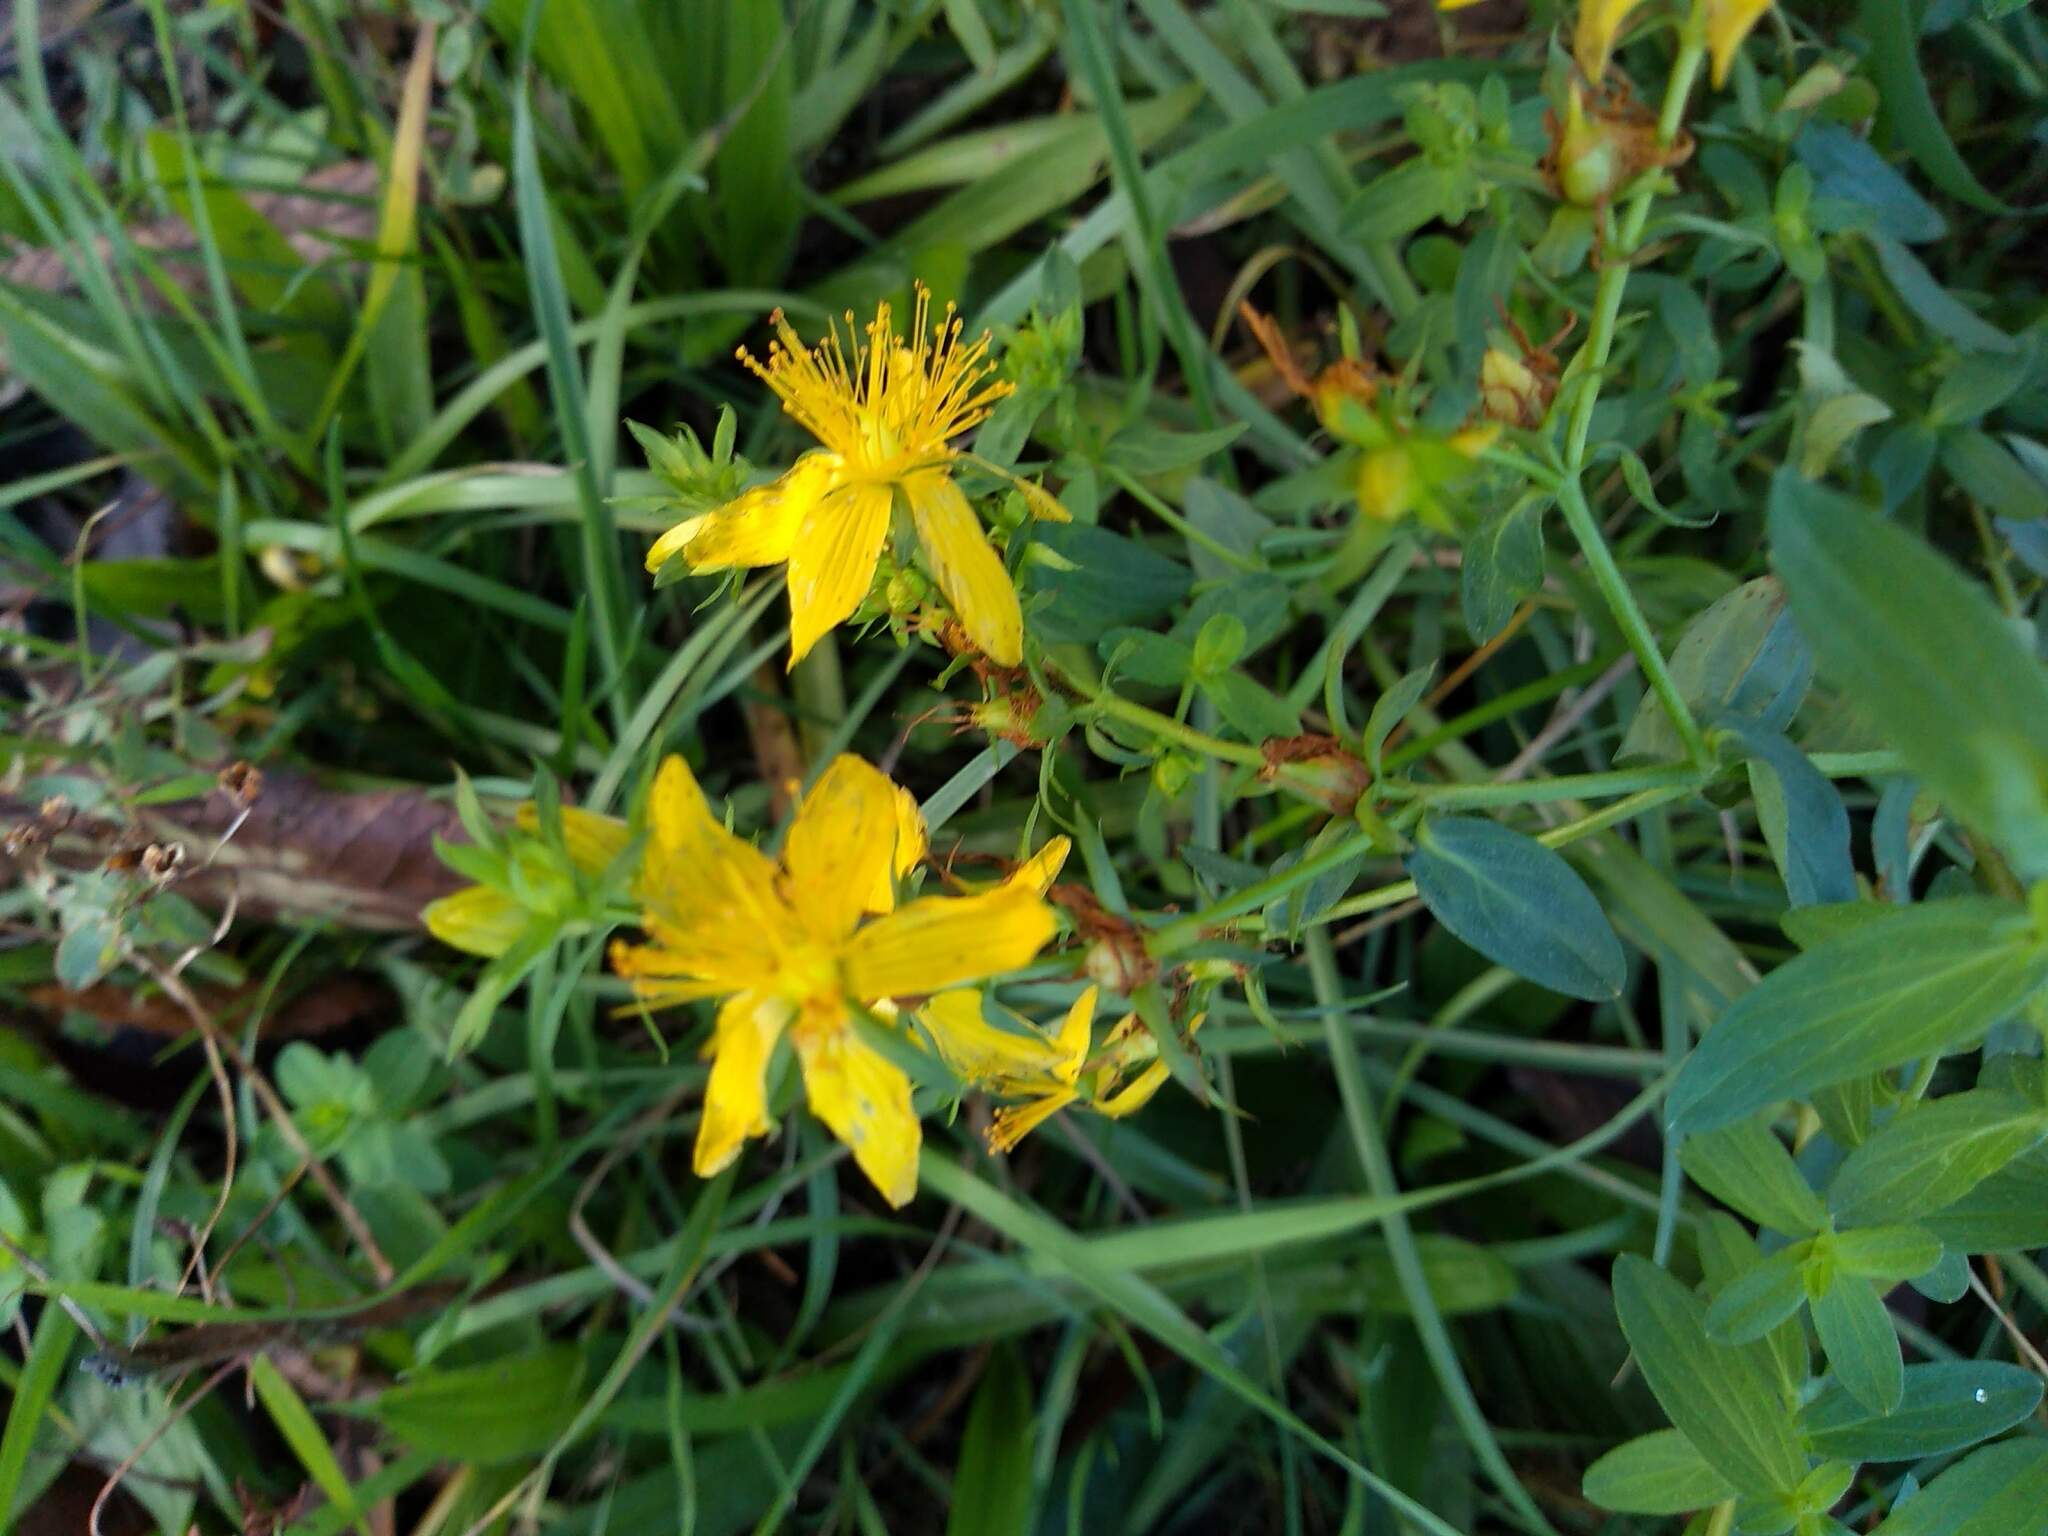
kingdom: Plantae
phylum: Tracheophyta
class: Magnoliopsida
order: Malpighiales
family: Hypericaceae
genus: Hypericum
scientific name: Hypericum perforatum
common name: Common st. johnswort
